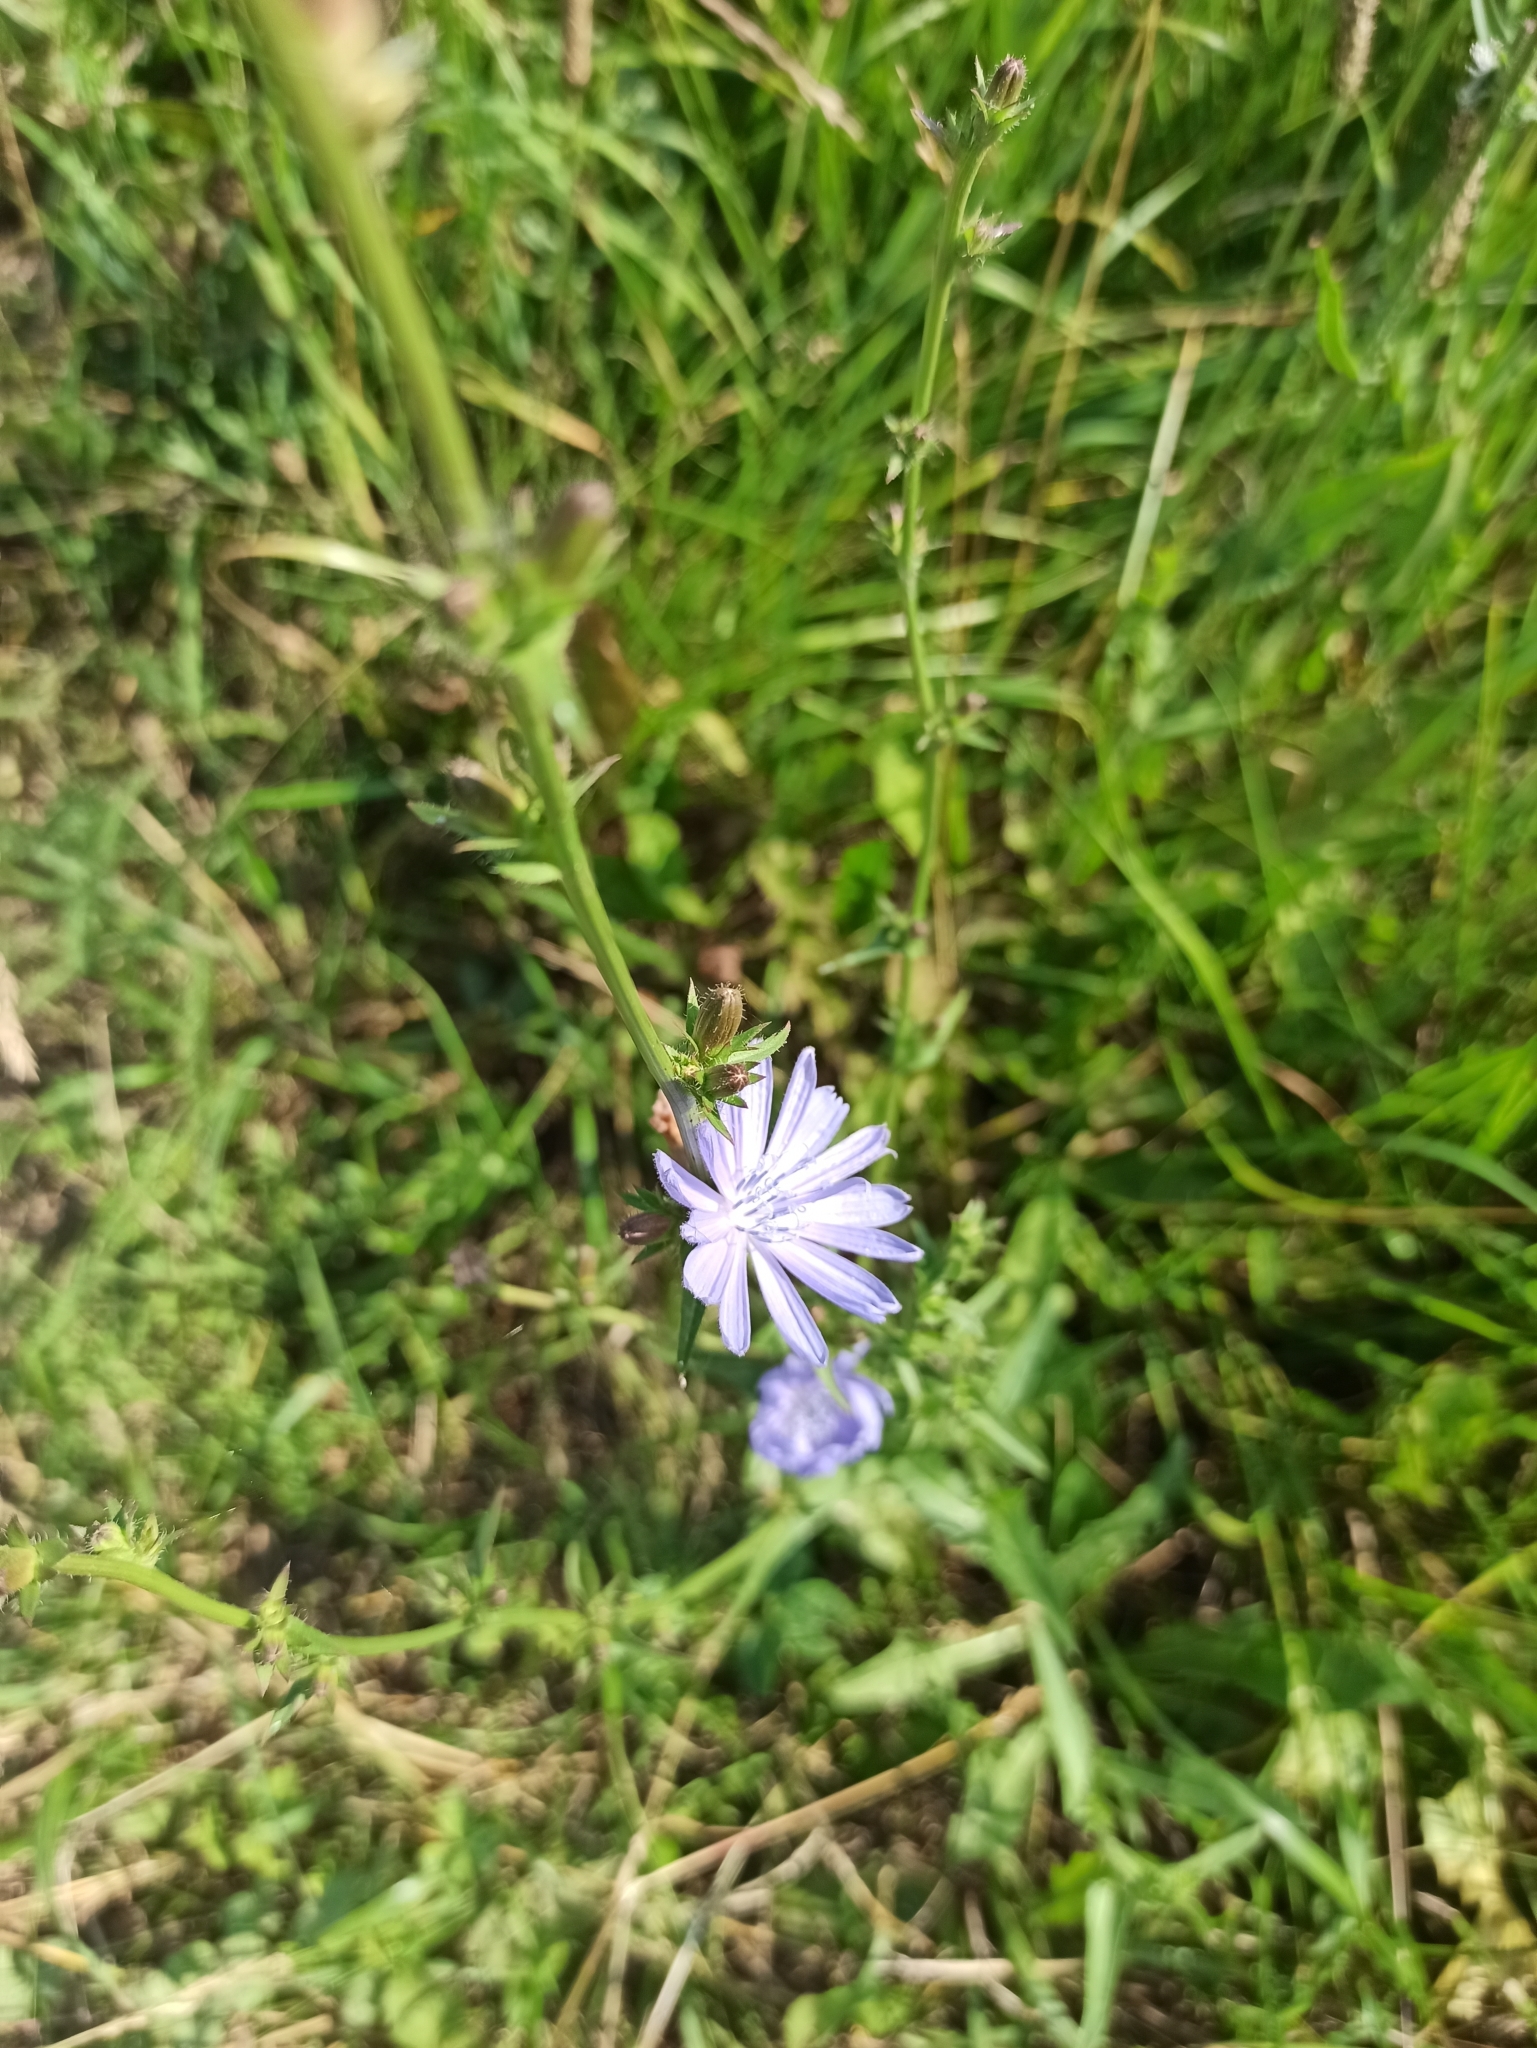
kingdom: Plantae
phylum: Tracheophyta
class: Magnoliopsida
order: Asterales
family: Asteraceae
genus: Cichorium
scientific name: Cichorium intybus
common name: Chicory
